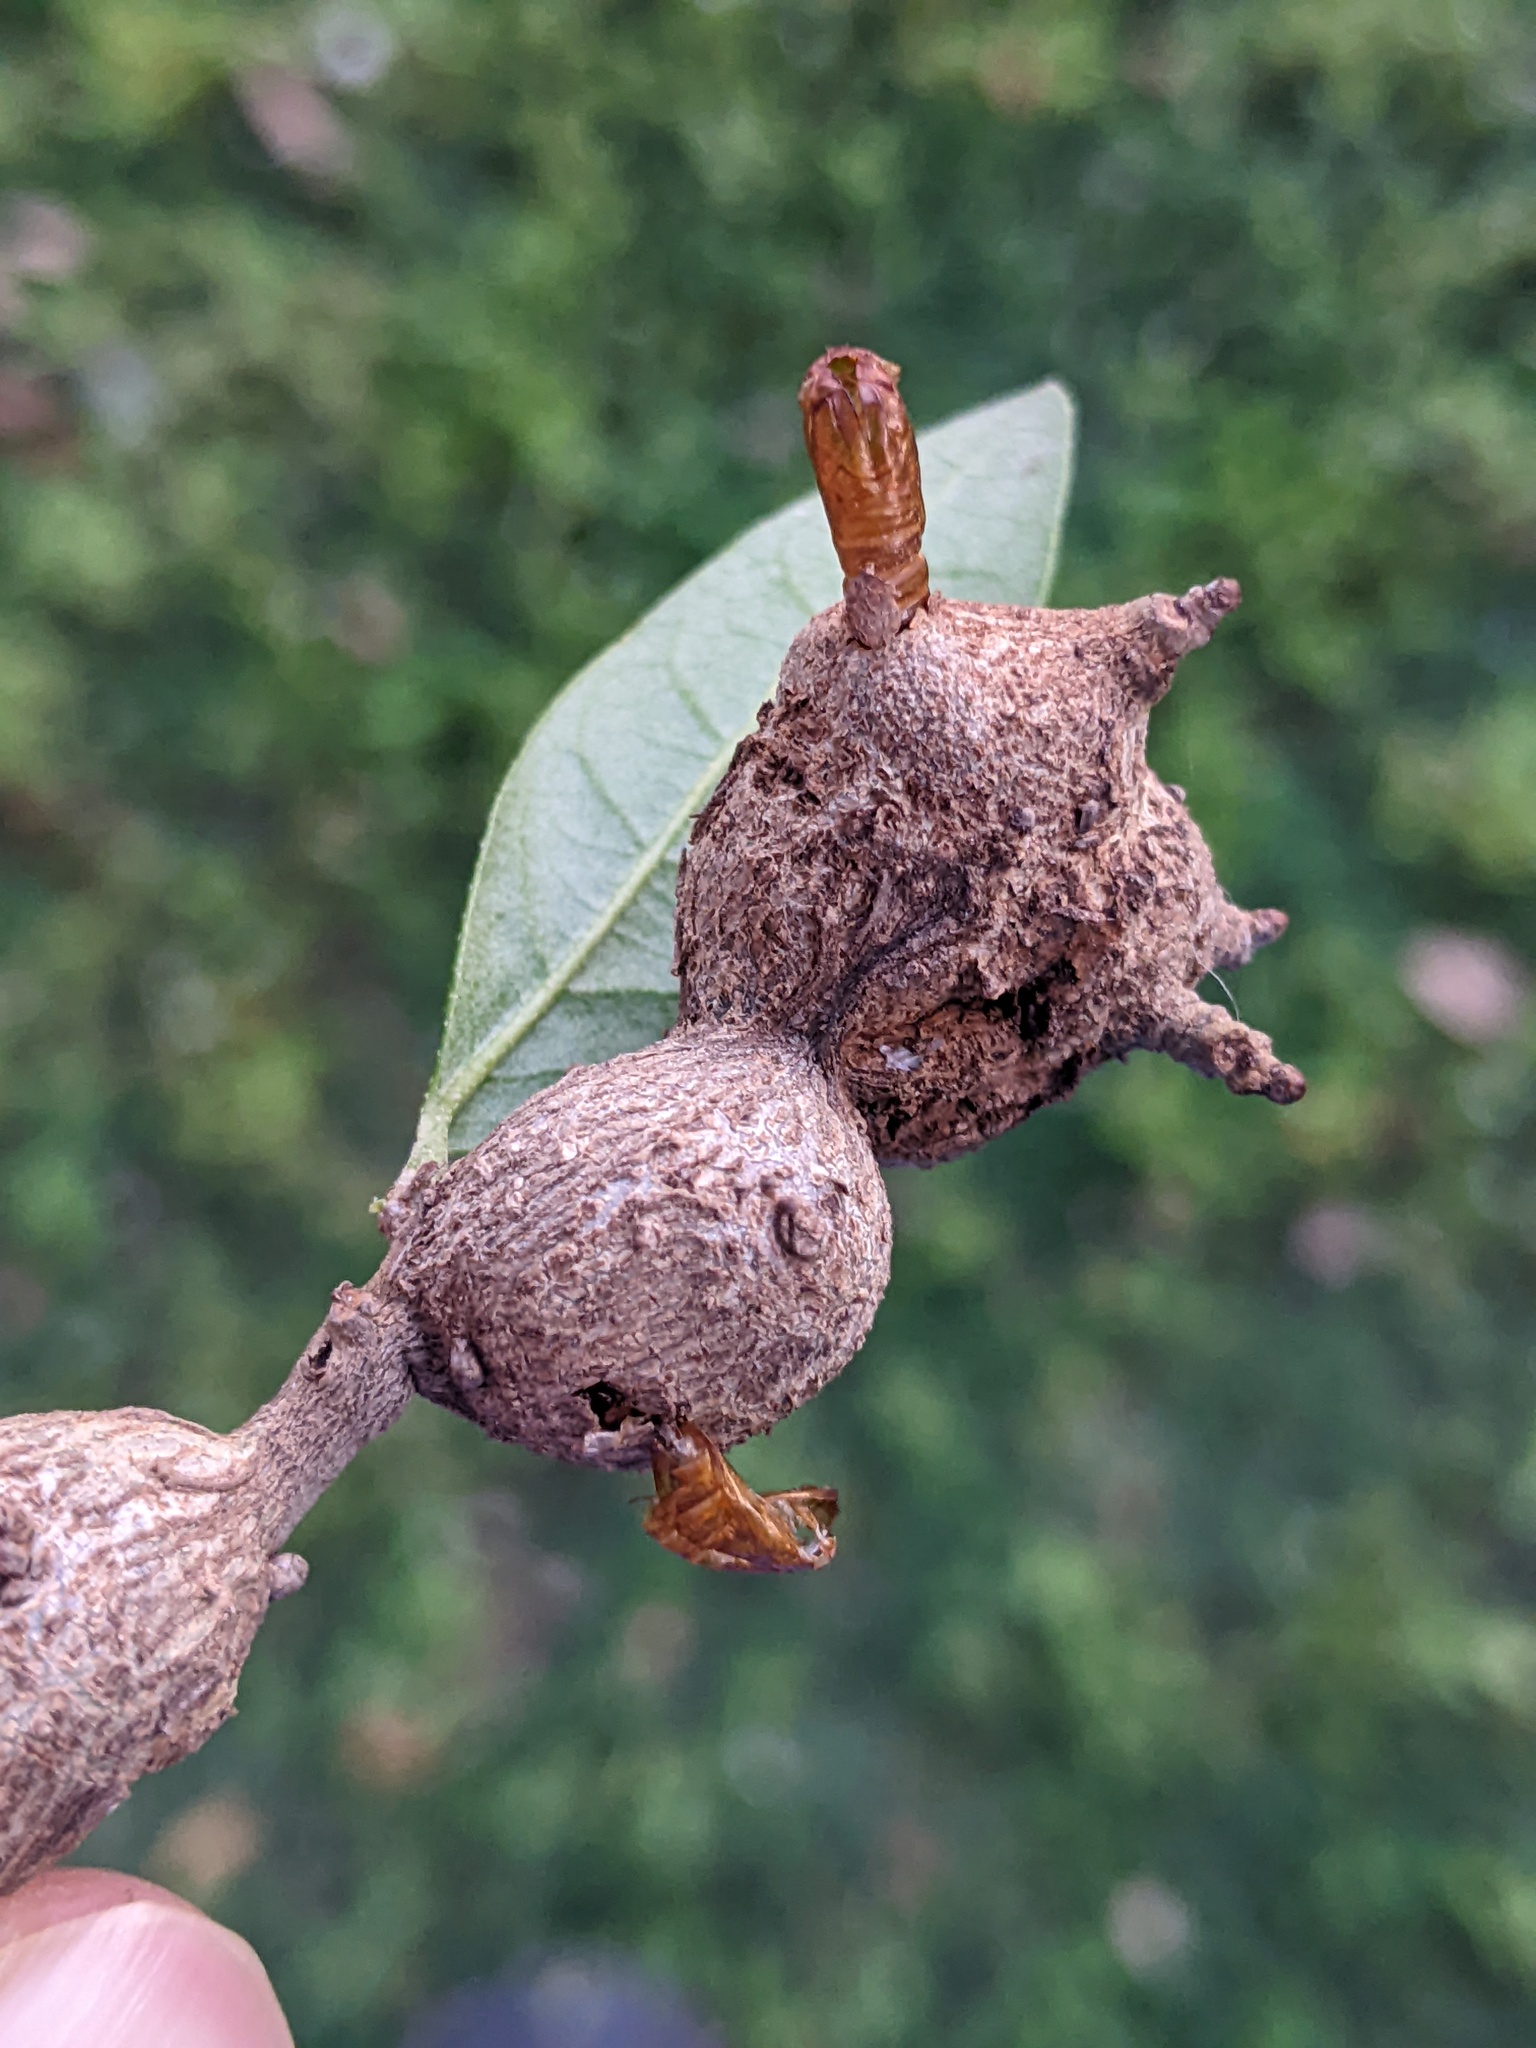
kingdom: Animalia
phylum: Arthropoda
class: Insecta
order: Hymenoptera
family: Cynipidae
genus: Callirhytis
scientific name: Callirhytis
